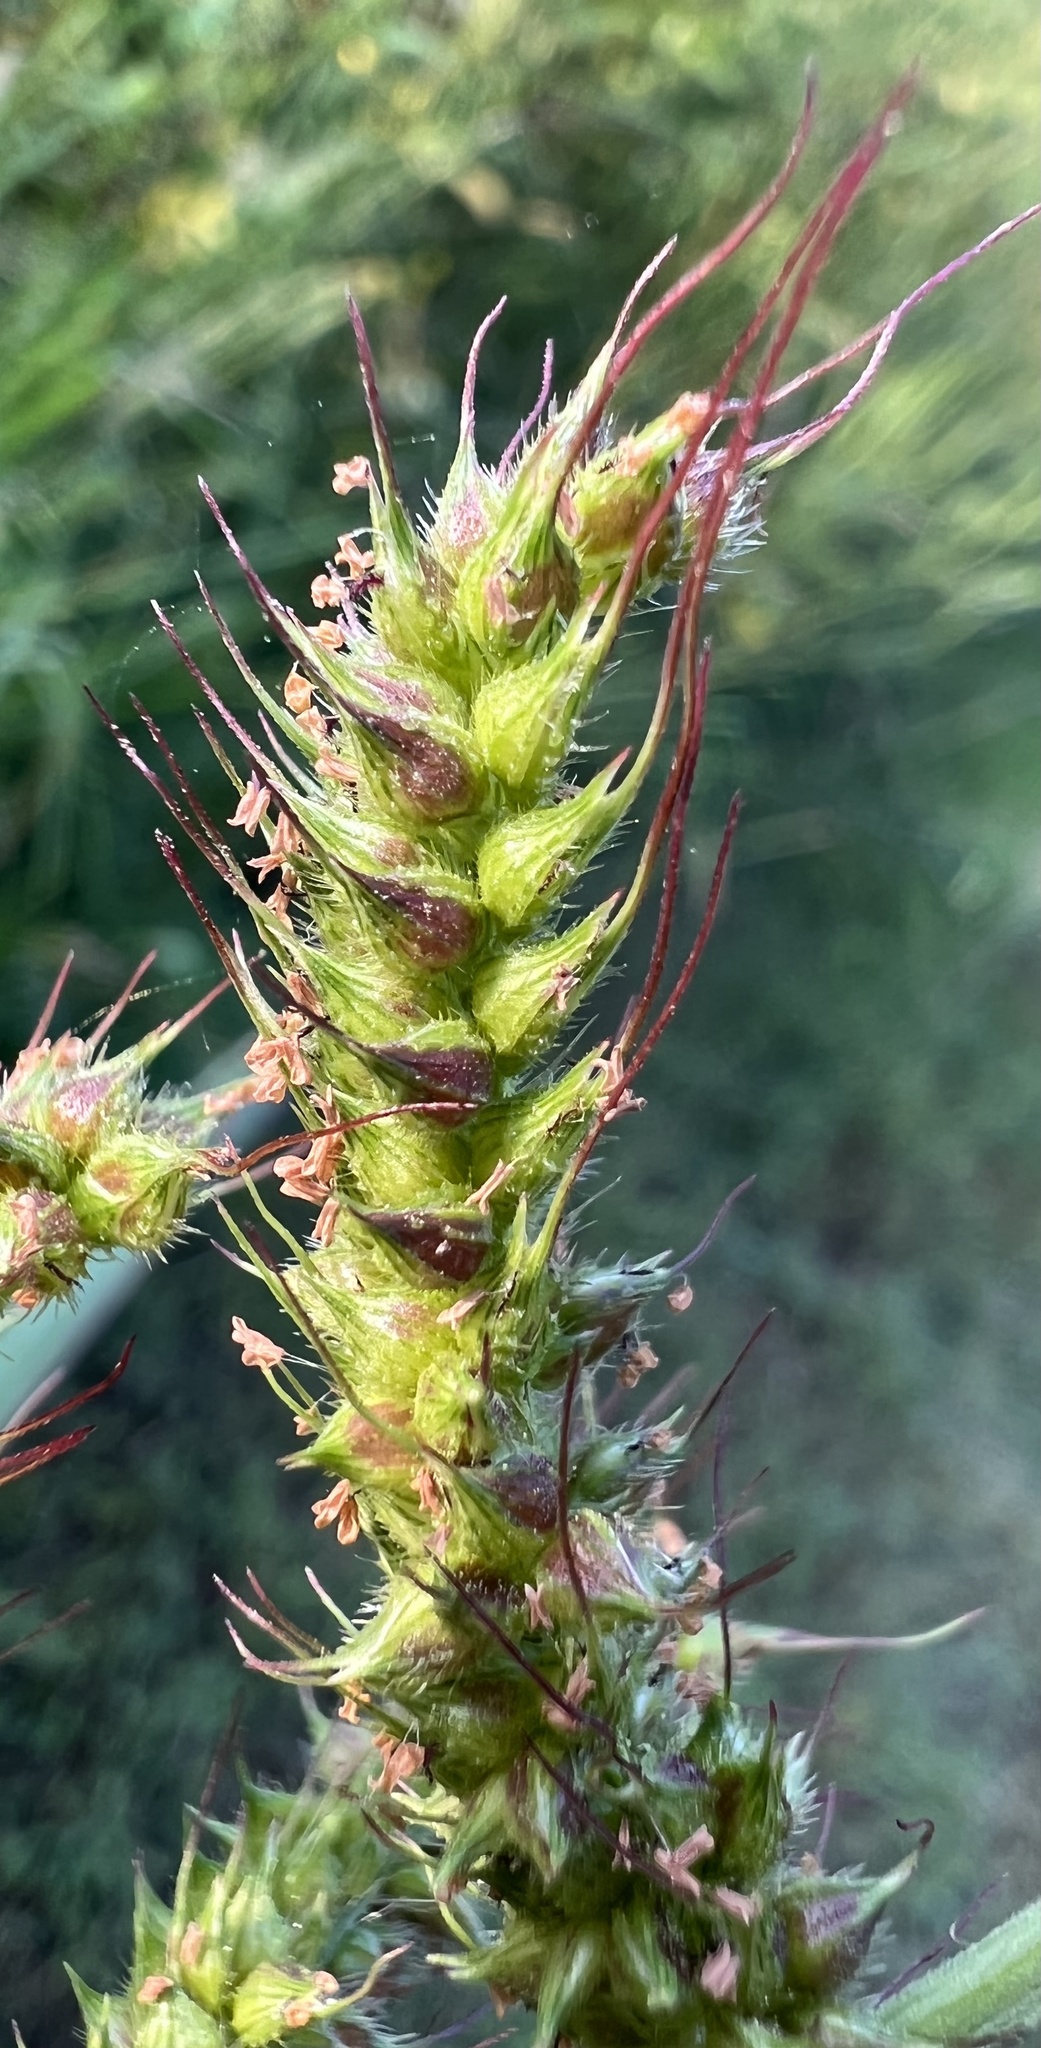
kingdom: Plantae
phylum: Tracheophyta
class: Liliopsida
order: Poales
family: Poaceae
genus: Echinochloa
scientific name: Echinochloa crus-galli
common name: Cockspur
